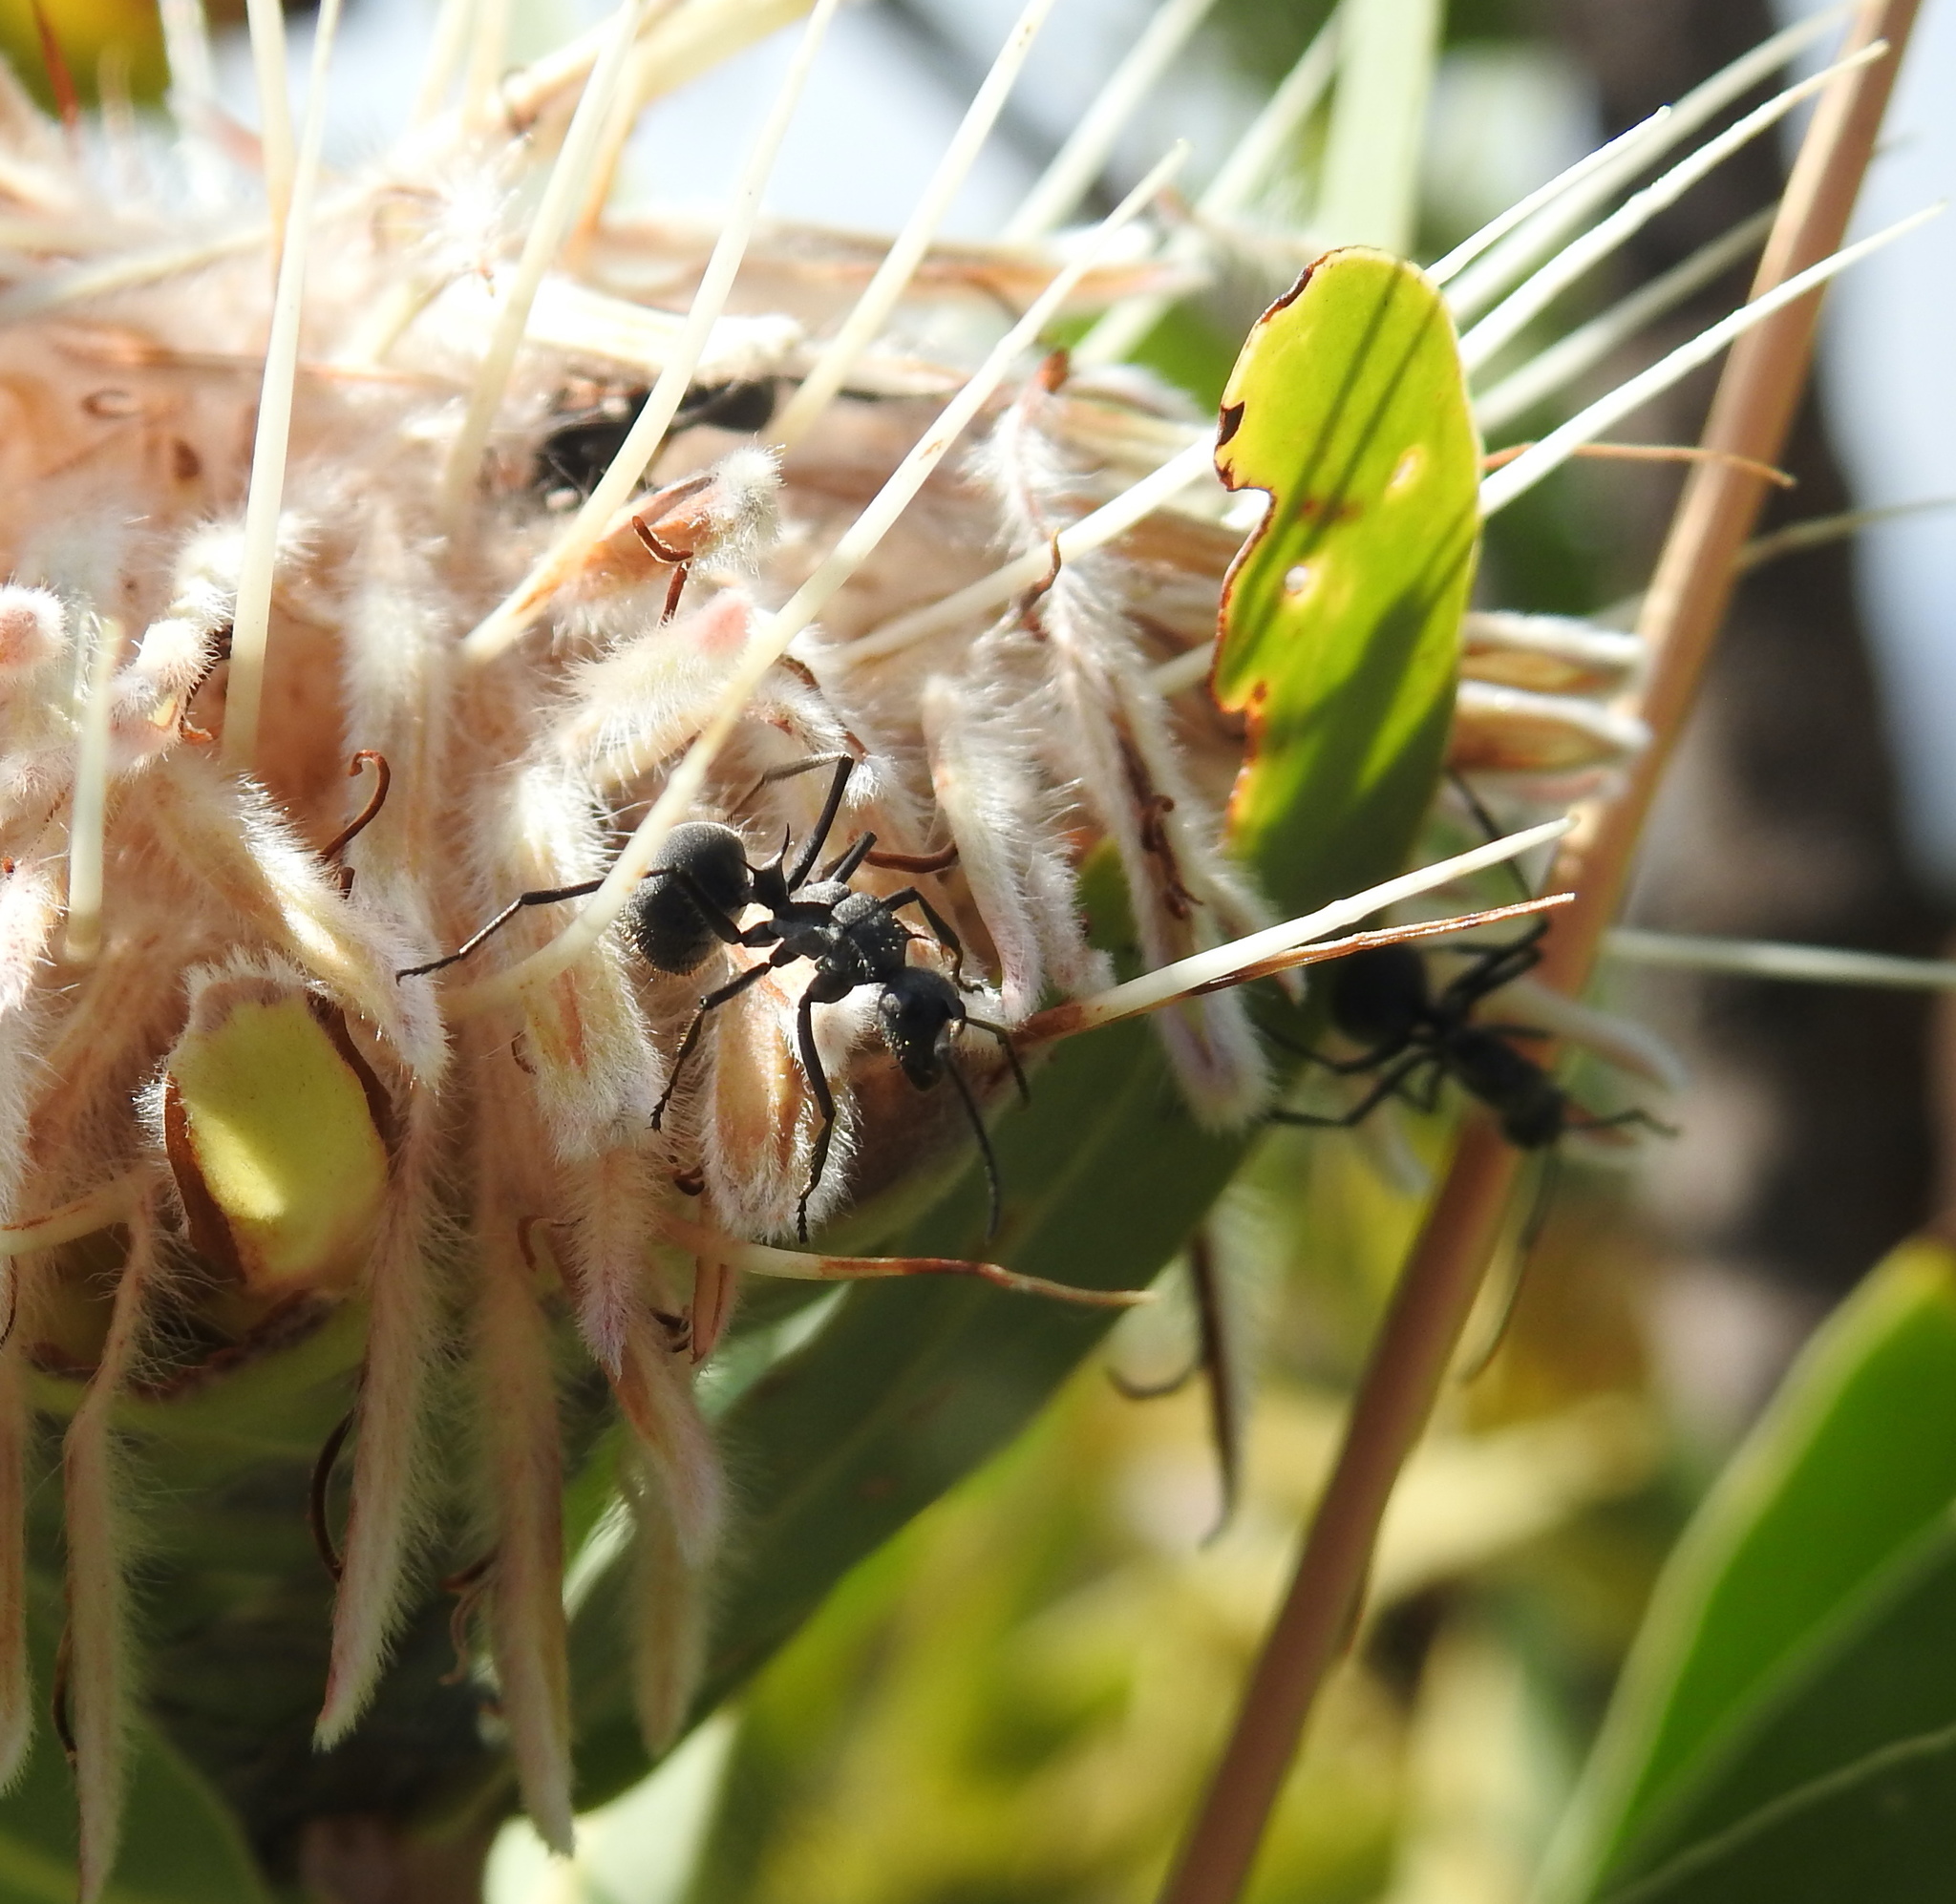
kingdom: Animalia
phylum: Arthropoda
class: Insecta
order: Hymenoptera
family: Formicidae
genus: Polyrhachis
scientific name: Polyrhachis schistacea
